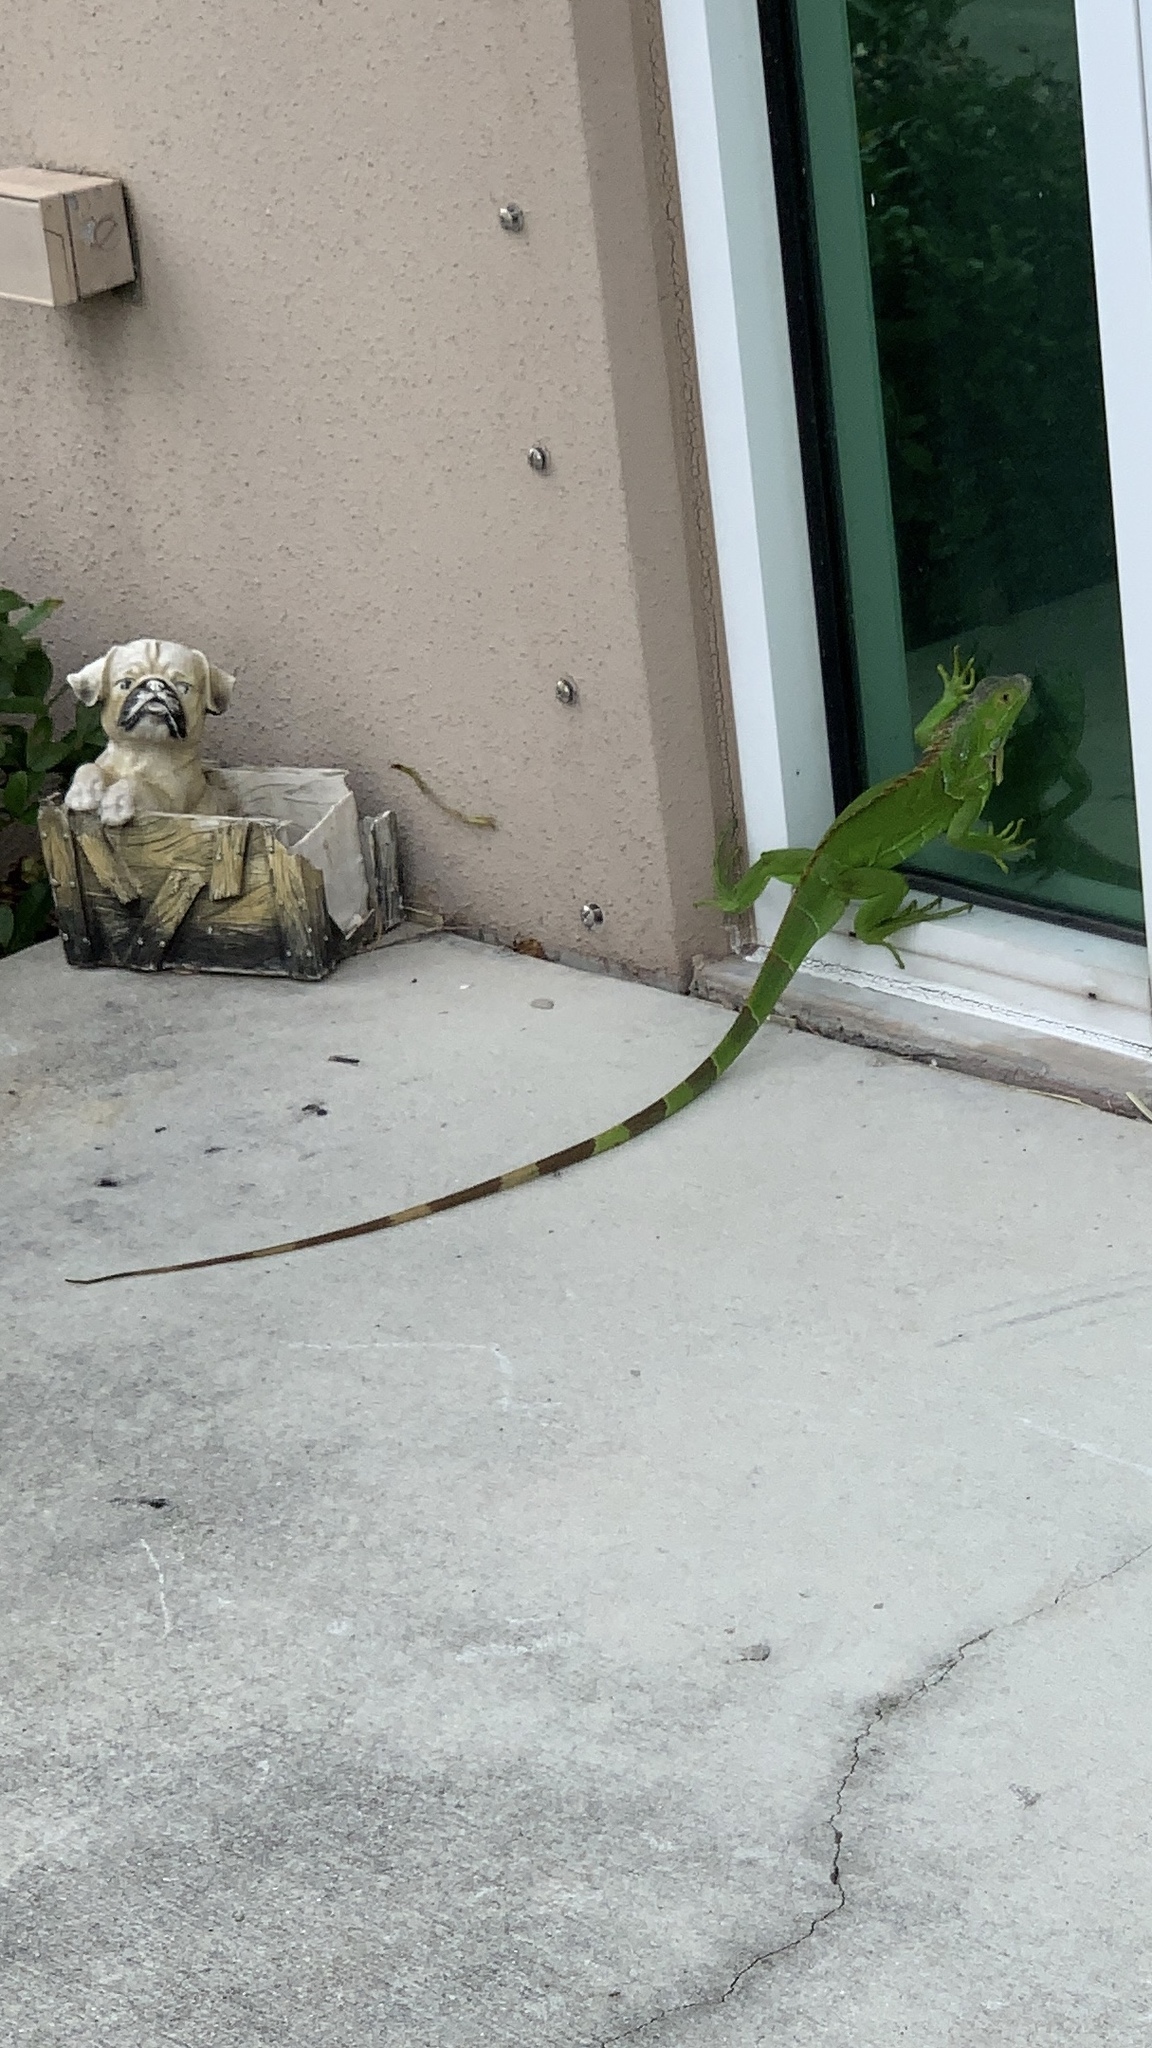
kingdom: Animalia
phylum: Chordata
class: Squamata
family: Iguanidae
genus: Iguana
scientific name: Iguana iguana
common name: Green iguana
